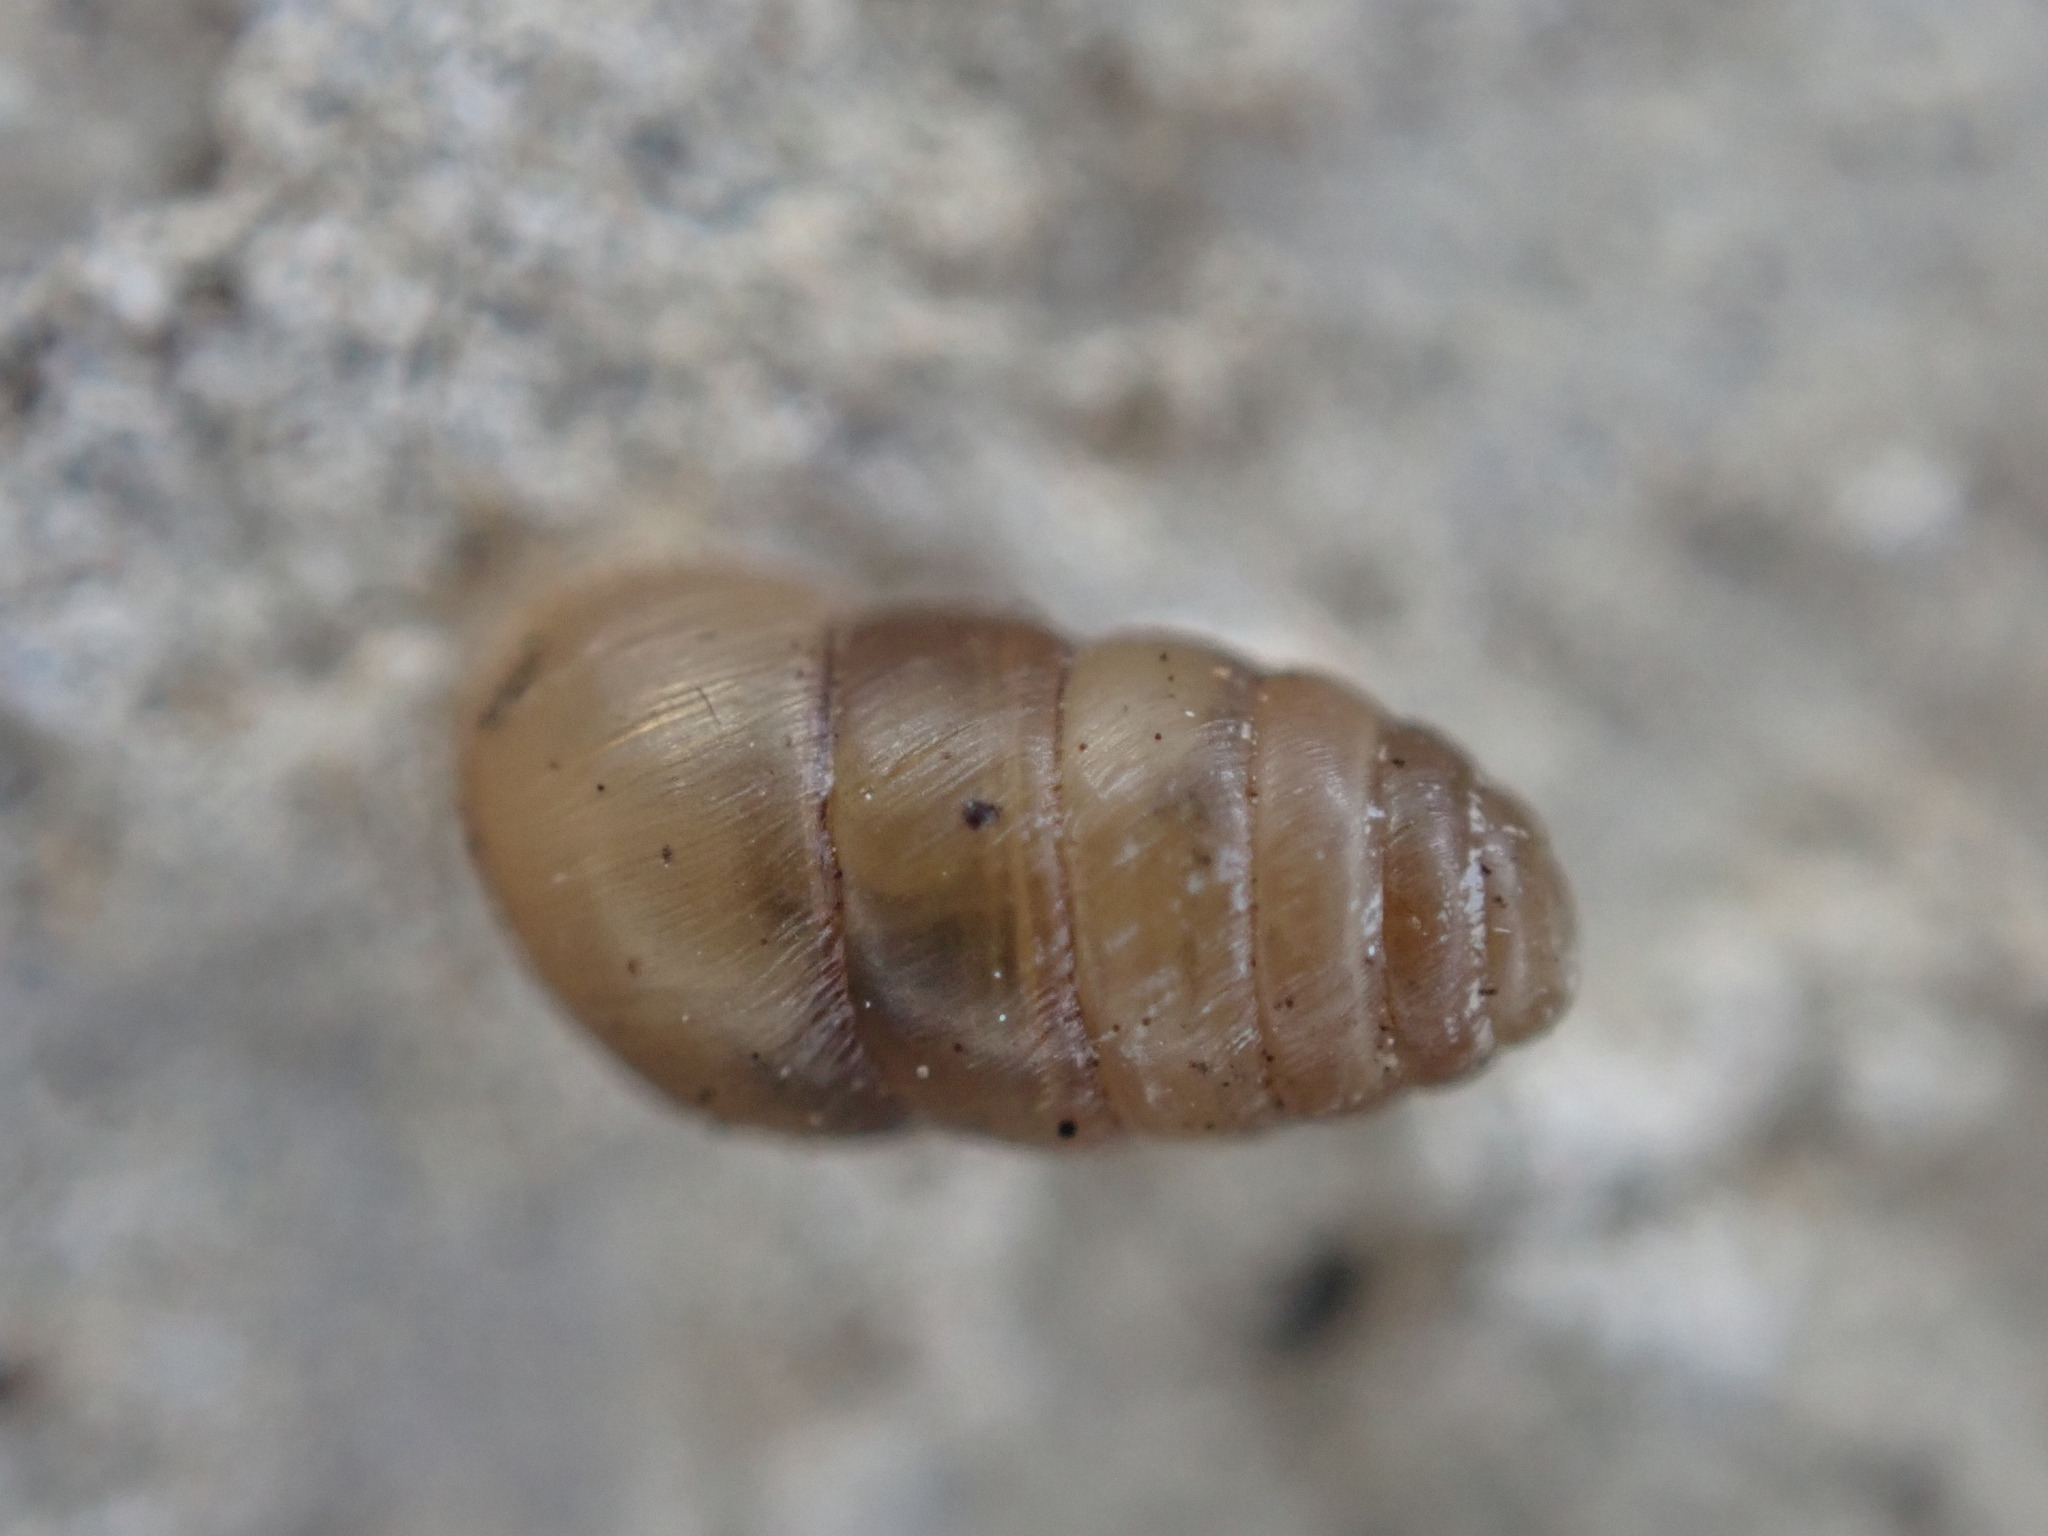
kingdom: Animalia
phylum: Mollusca
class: Gastropoda
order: Stylommatophora
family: Lauriidae
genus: Lauria
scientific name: Lauria cylindracea
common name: Common chrysalis snail
